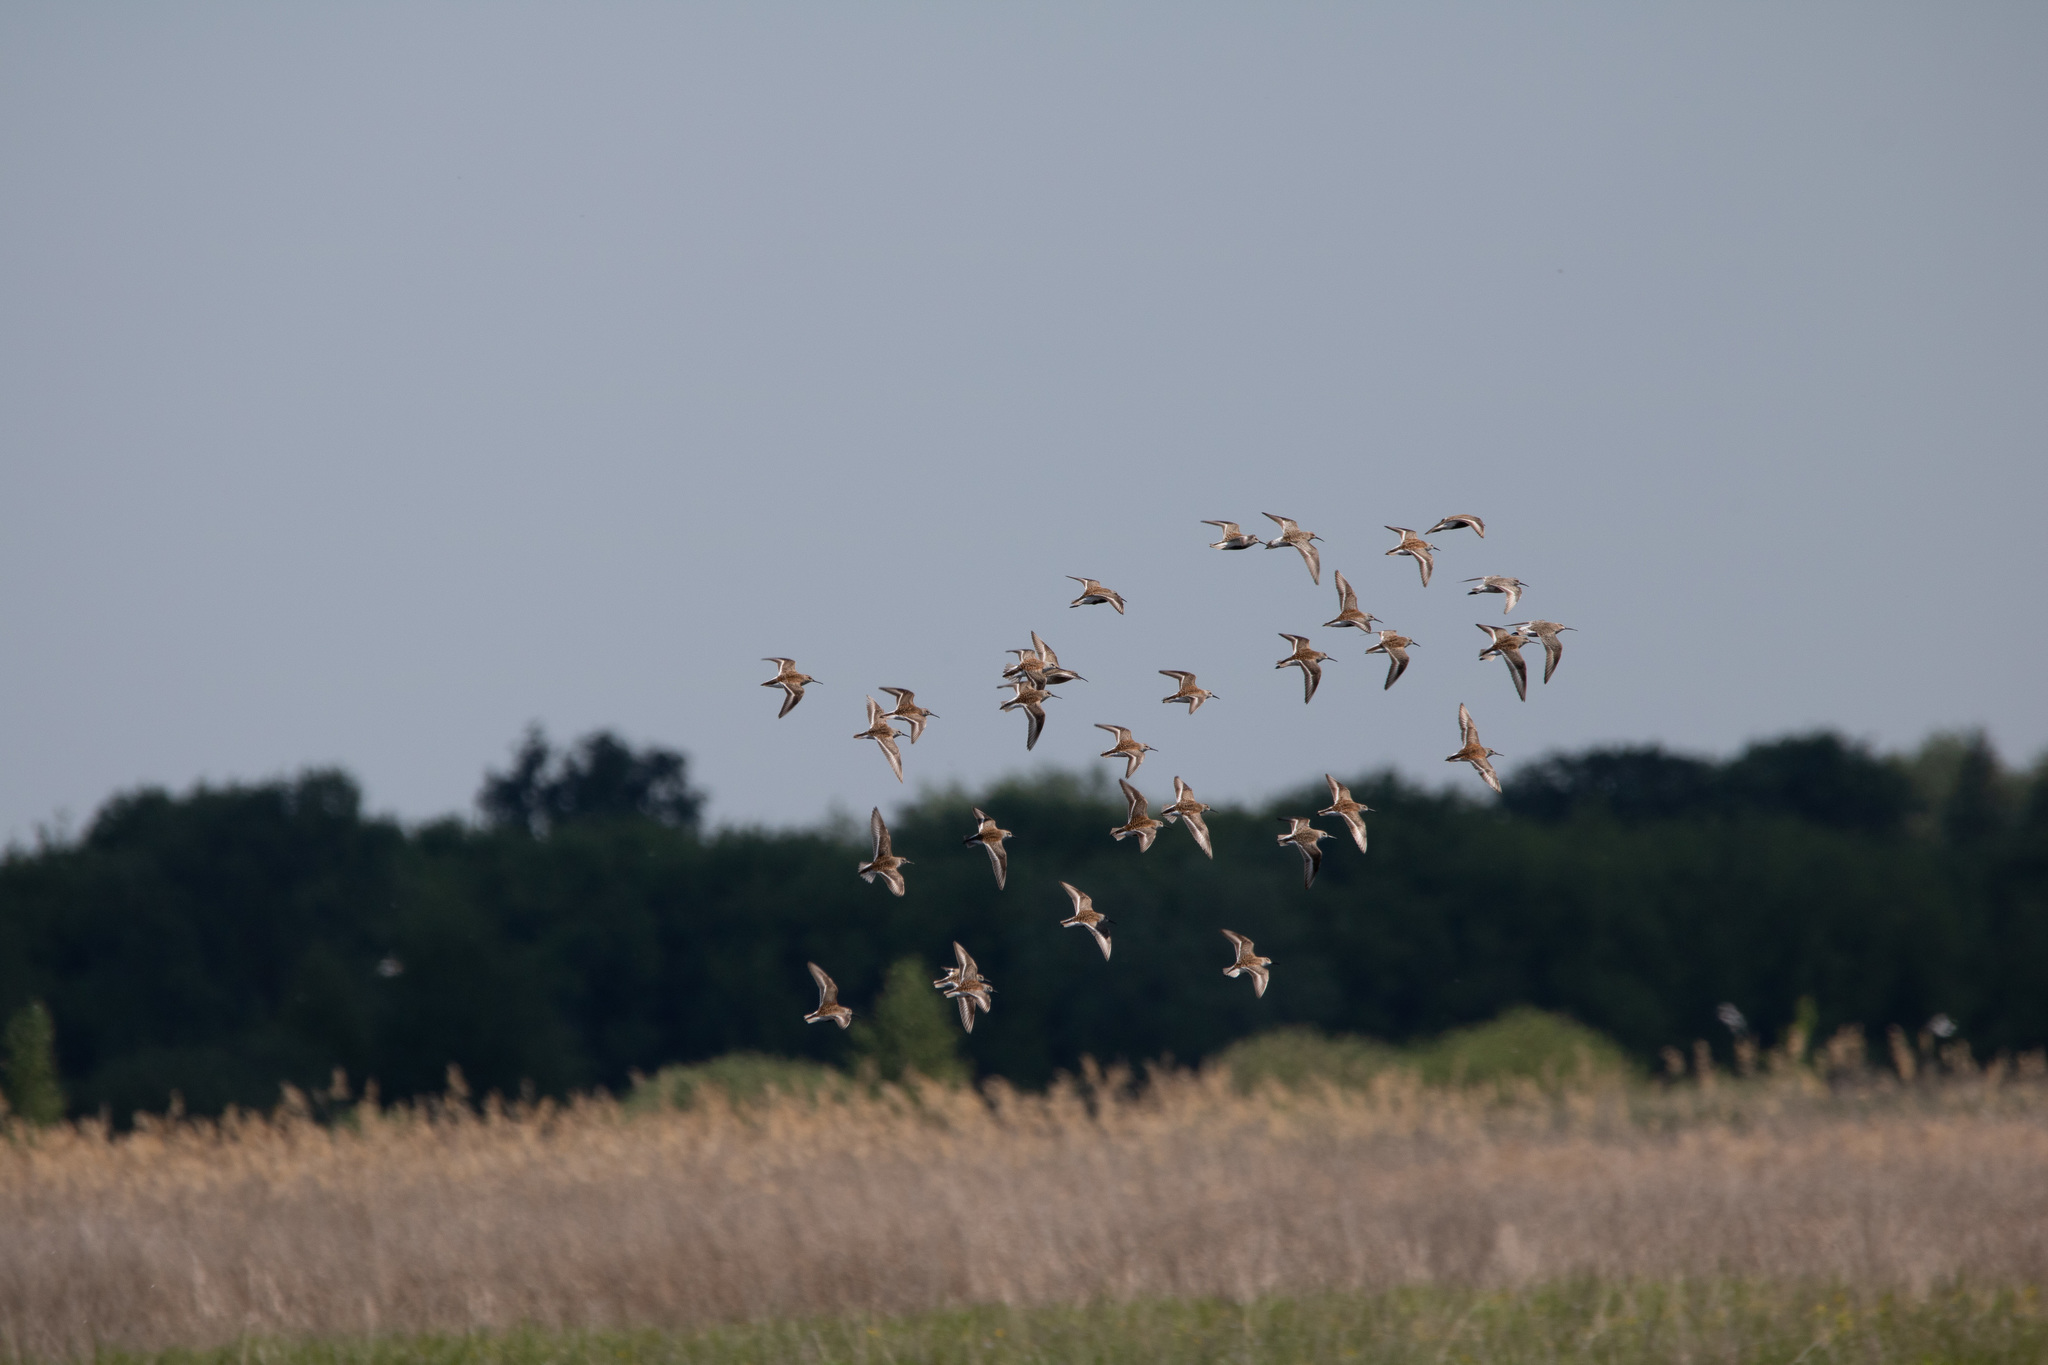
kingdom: Animalia
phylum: Chordata
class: Aves
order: Charadriiformes
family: Scolopacidae
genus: Calidris
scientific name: Calidris alpina
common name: Dunlin
